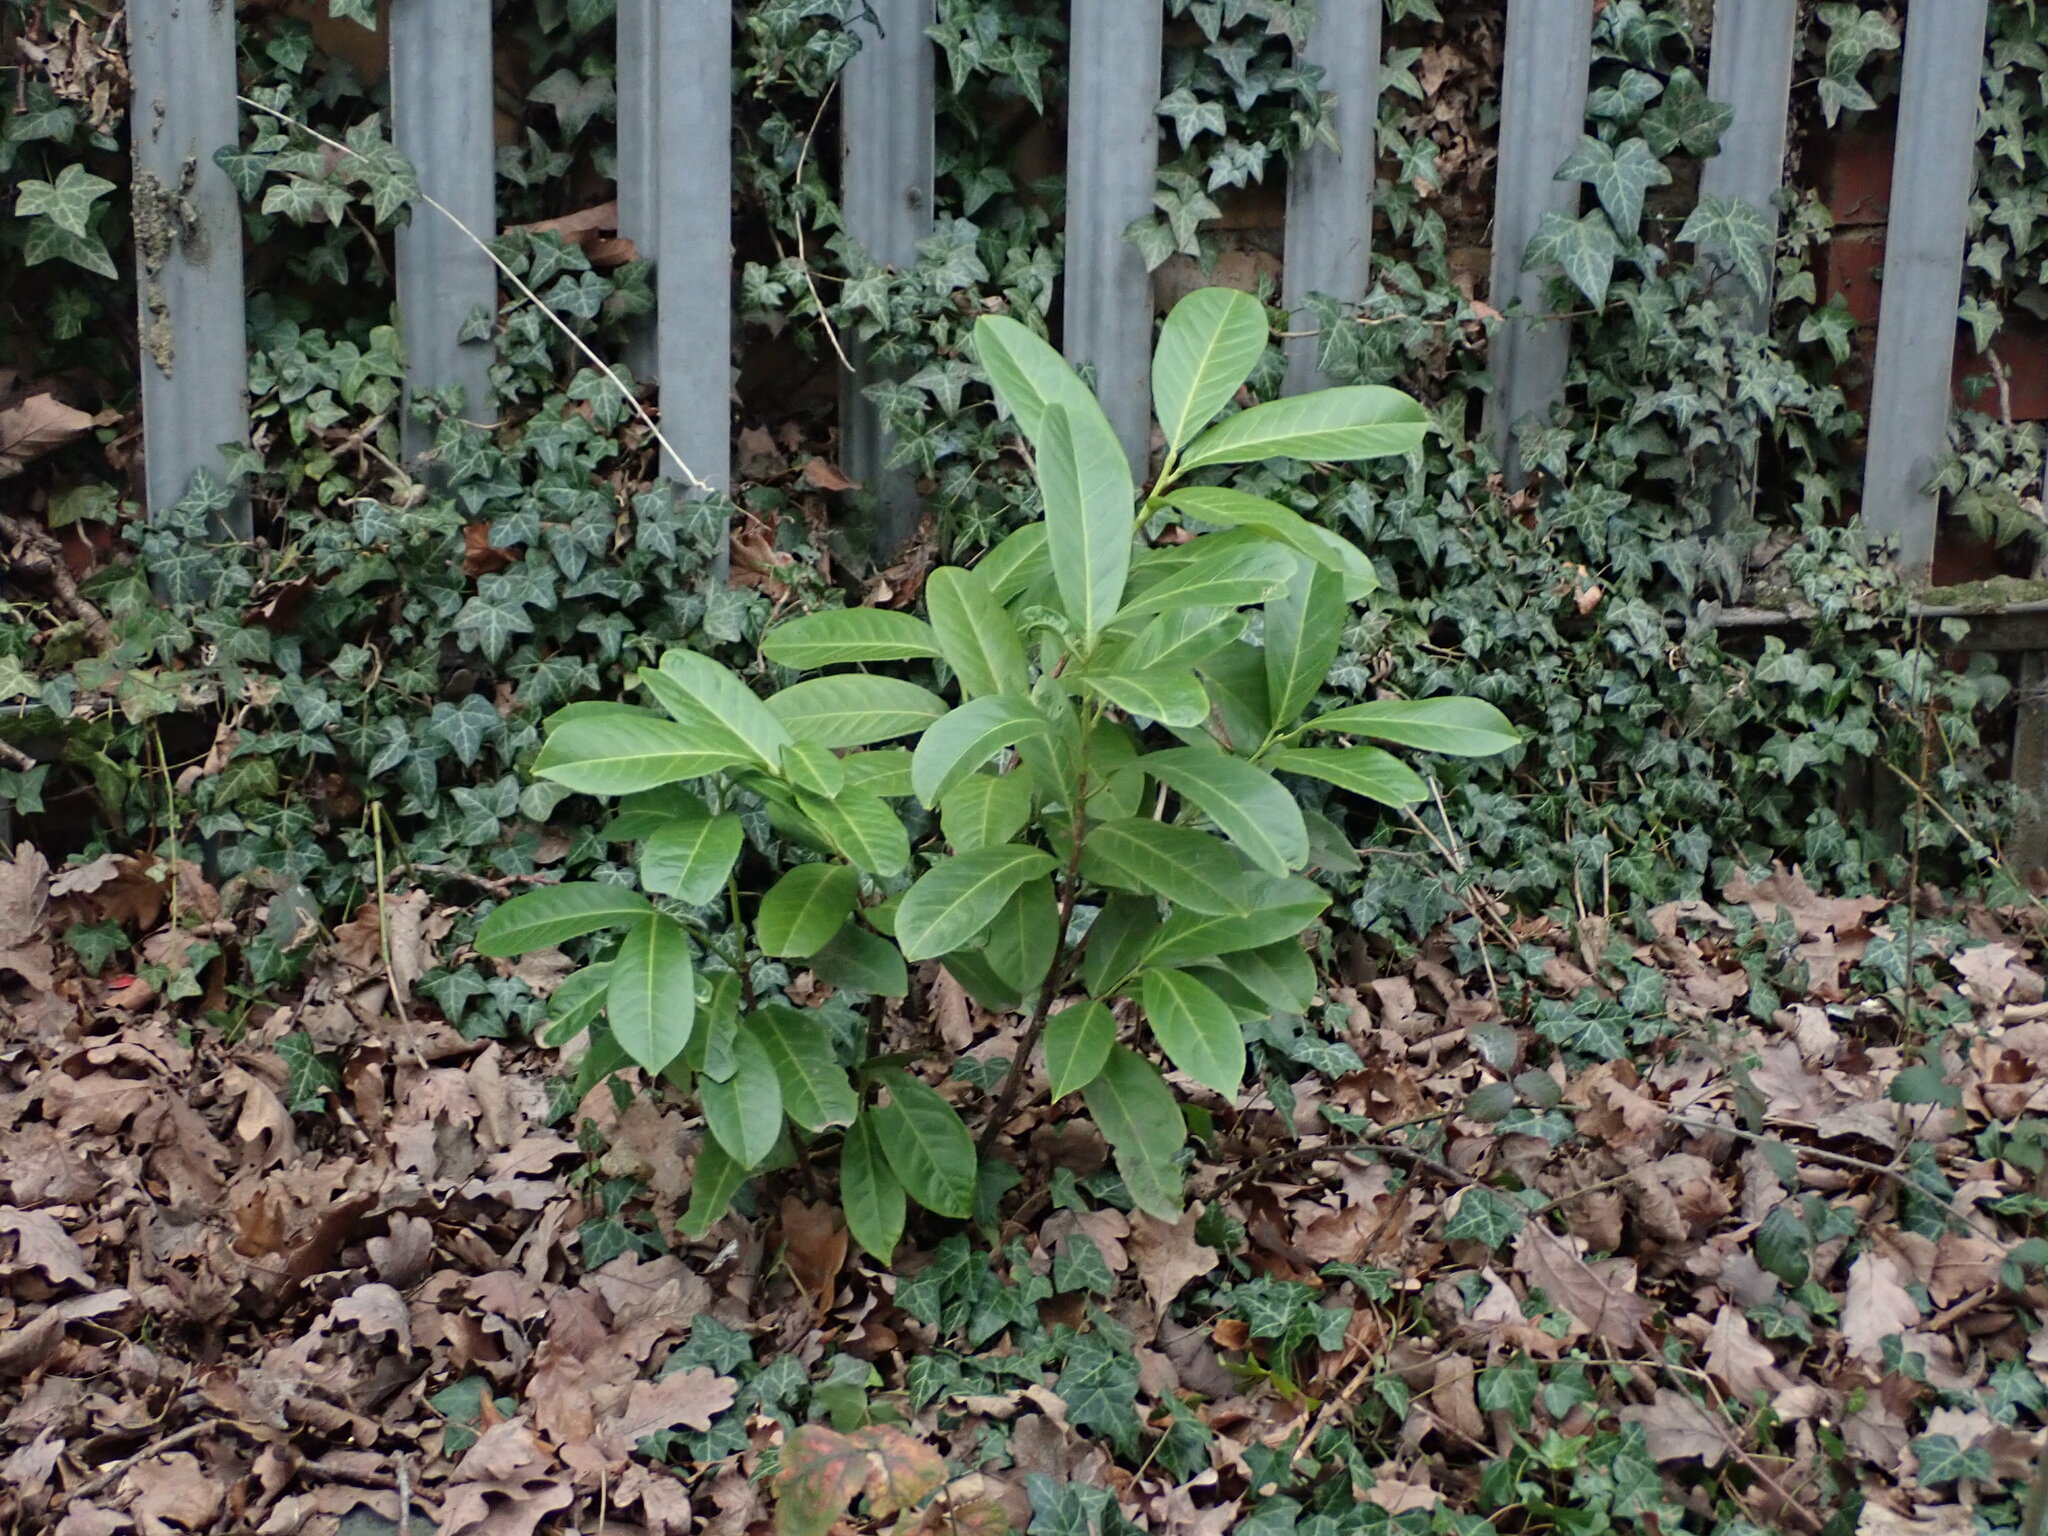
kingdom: Plantae
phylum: Tracheophyta
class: Magnoliopsida
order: Rosales
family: Rosaceae
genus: Prunus
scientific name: Prunus laurocerasus
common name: Cherry laurel
